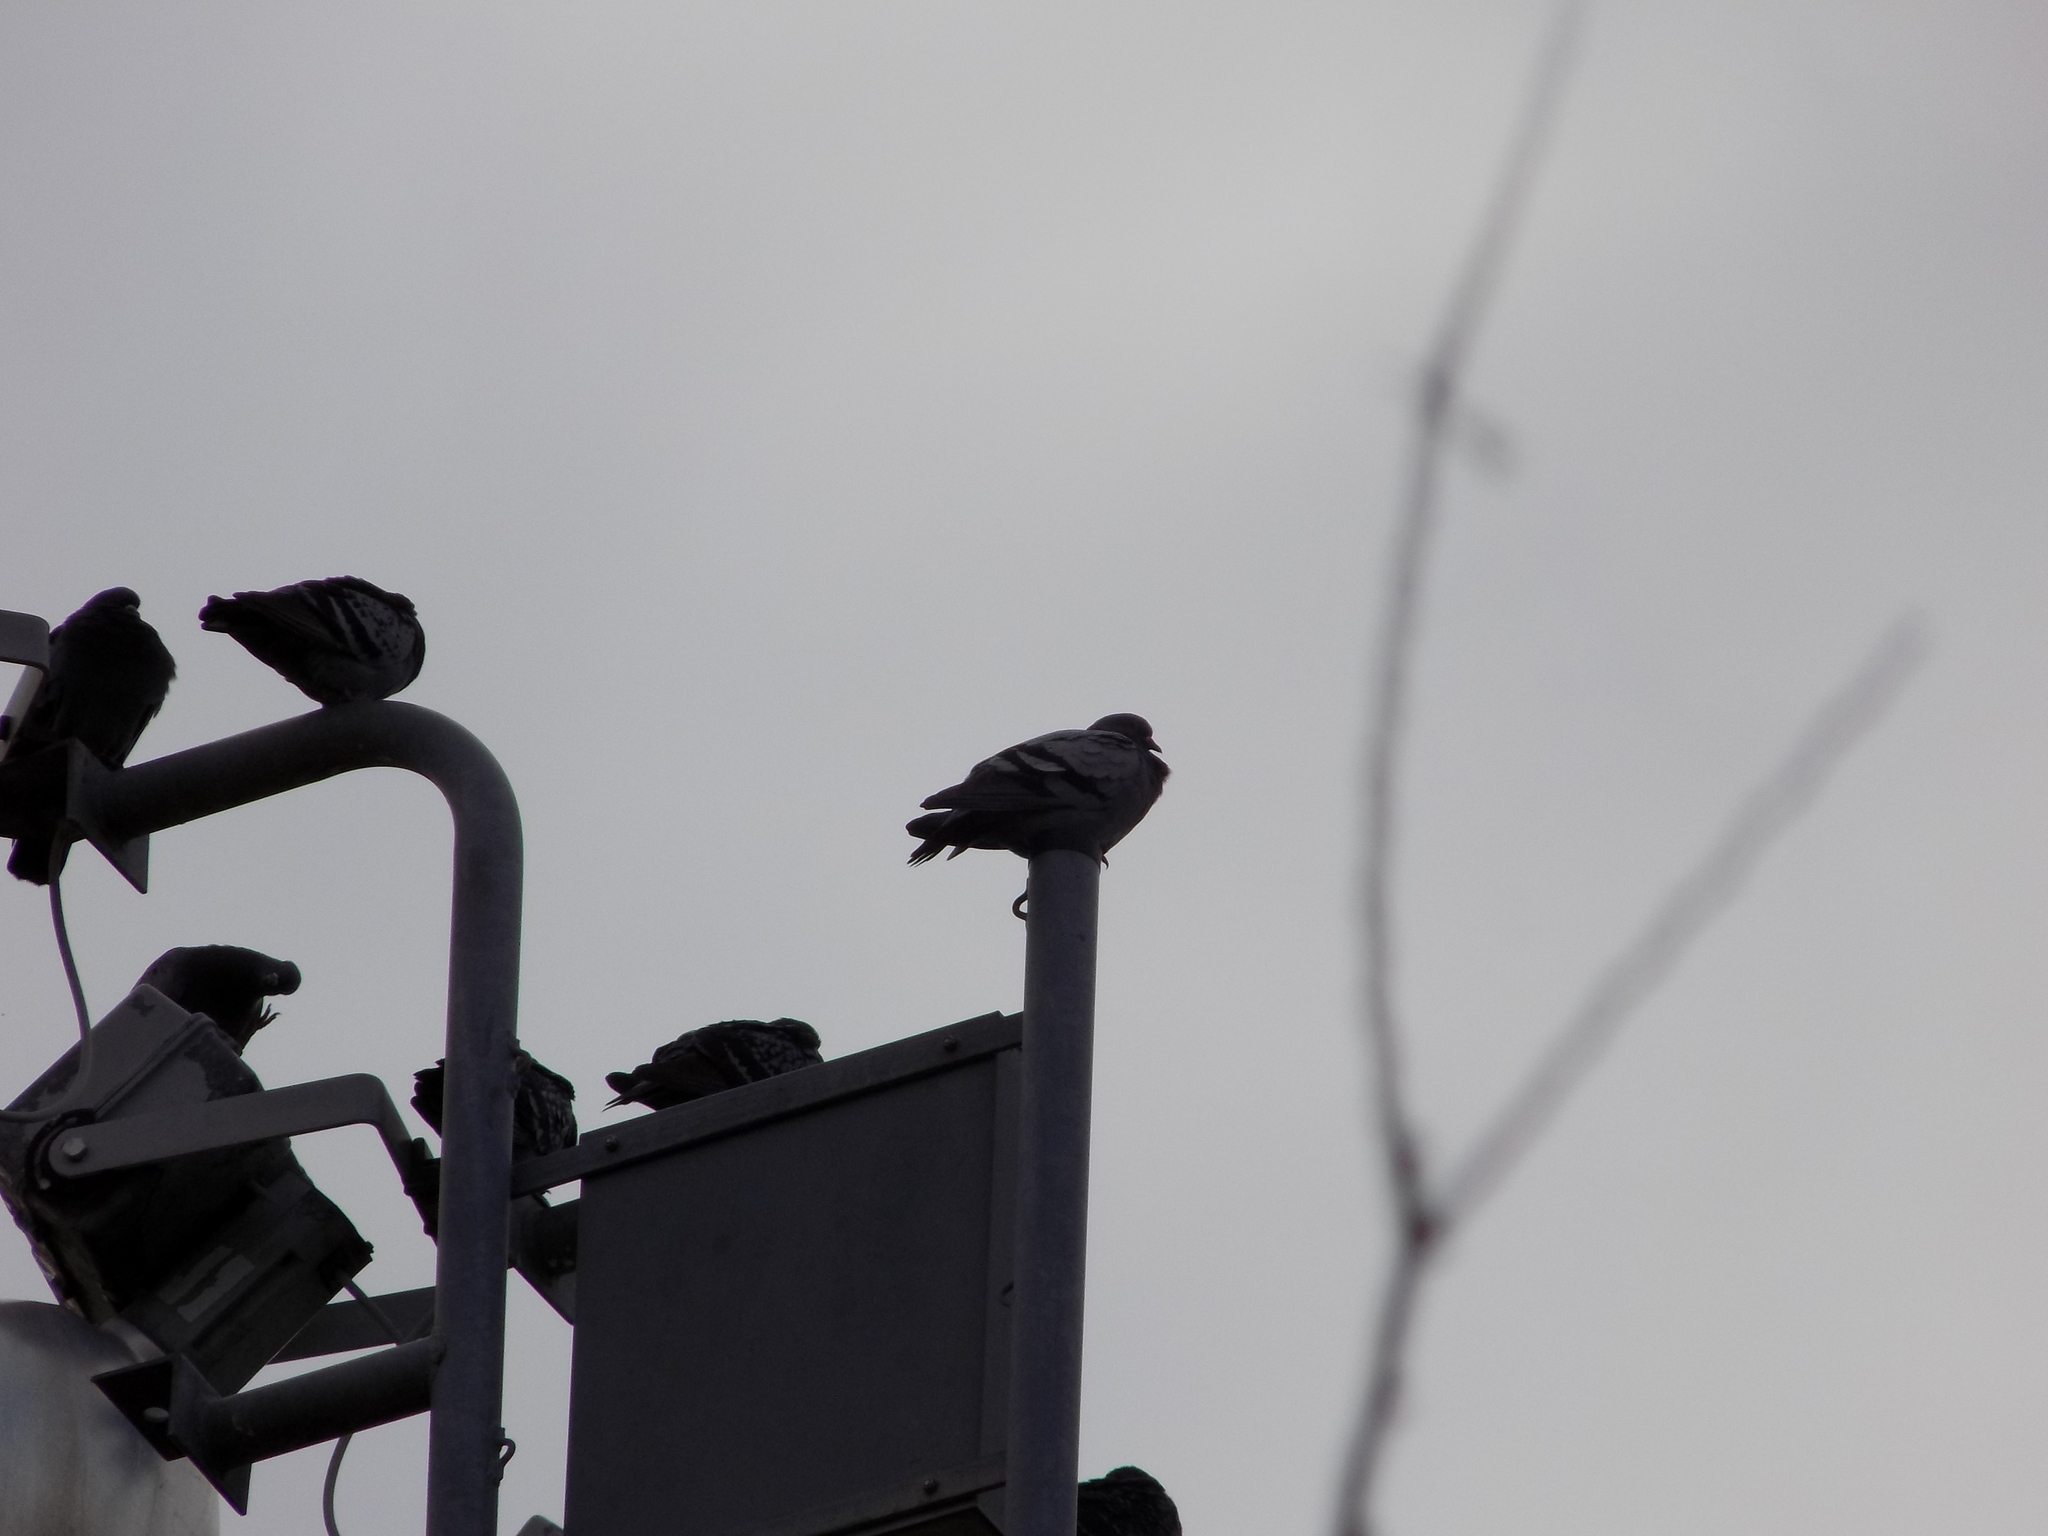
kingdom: Animalia
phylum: Chordata
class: Aves
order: Columbiformes
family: Columbidae
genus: Columba
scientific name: Columba livia
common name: Rock pigeon
